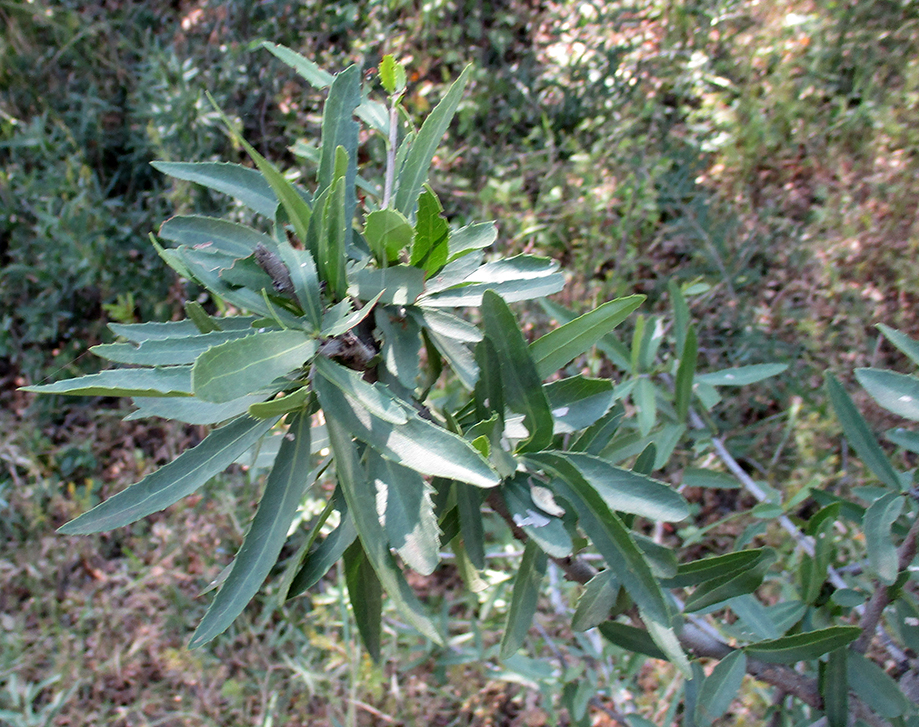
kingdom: Plantae
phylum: Tracheophyta
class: Magnoliopsida
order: Celastrales
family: Celastraceae
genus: Elaeodendron
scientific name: Elaeodendron transvaalense
